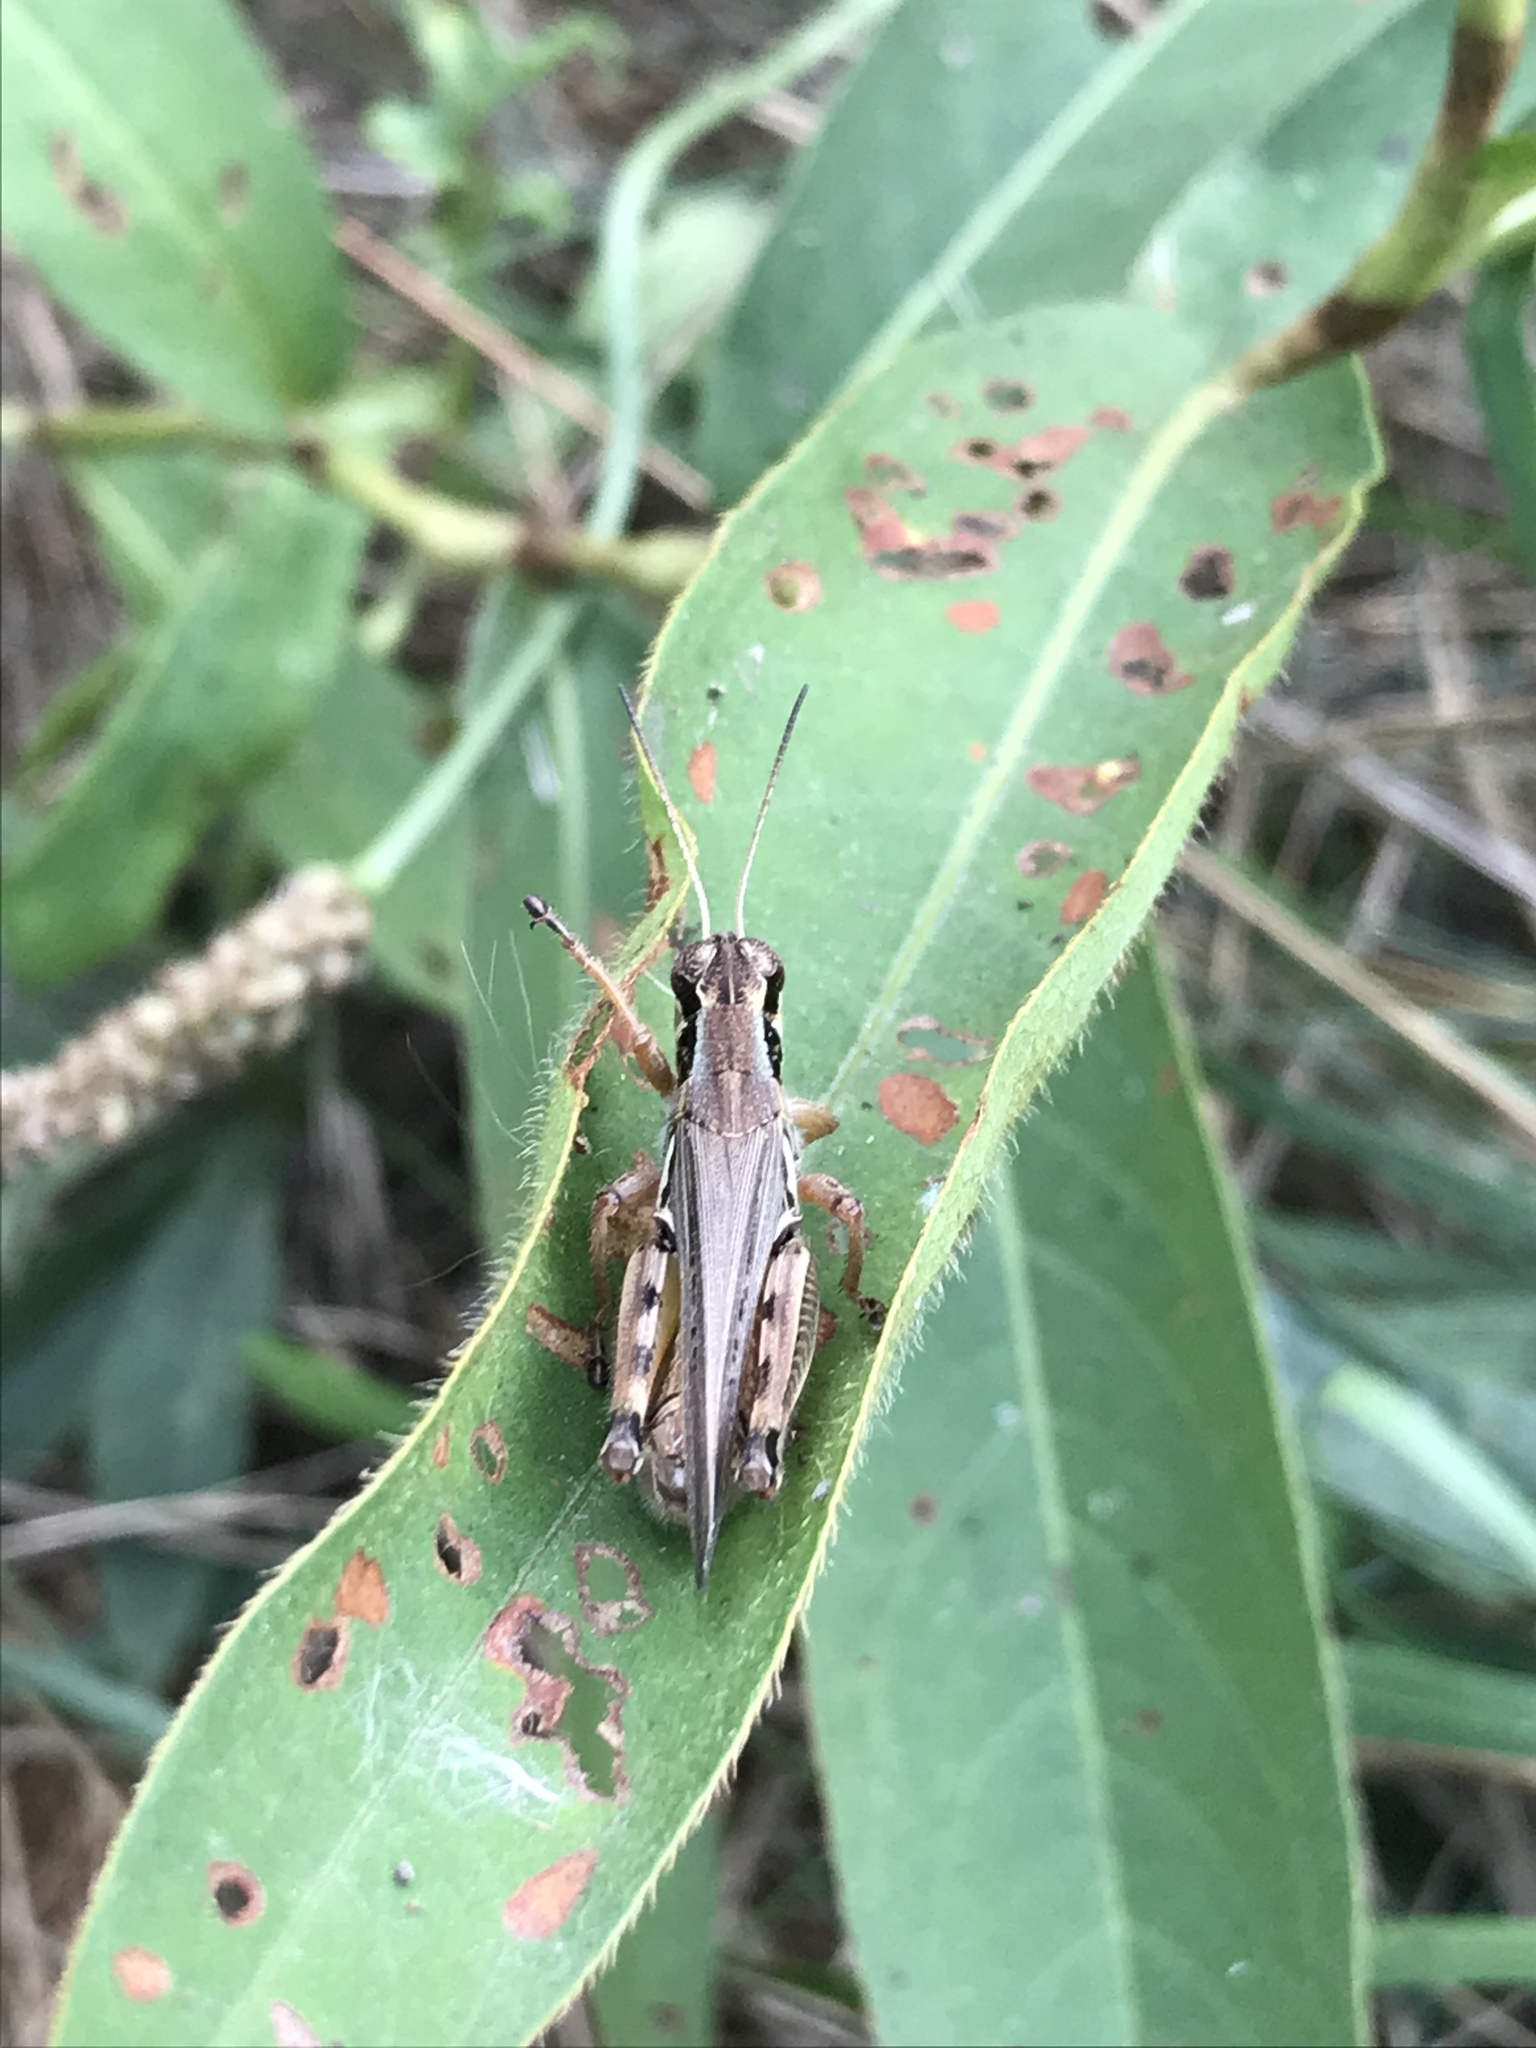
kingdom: Animalia
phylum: Arthropoda
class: Insecta
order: Orthoptera
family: Acrididae
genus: Melanoplus
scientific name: Melanoplus femurrubrum
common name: Red-legged grasshopper
